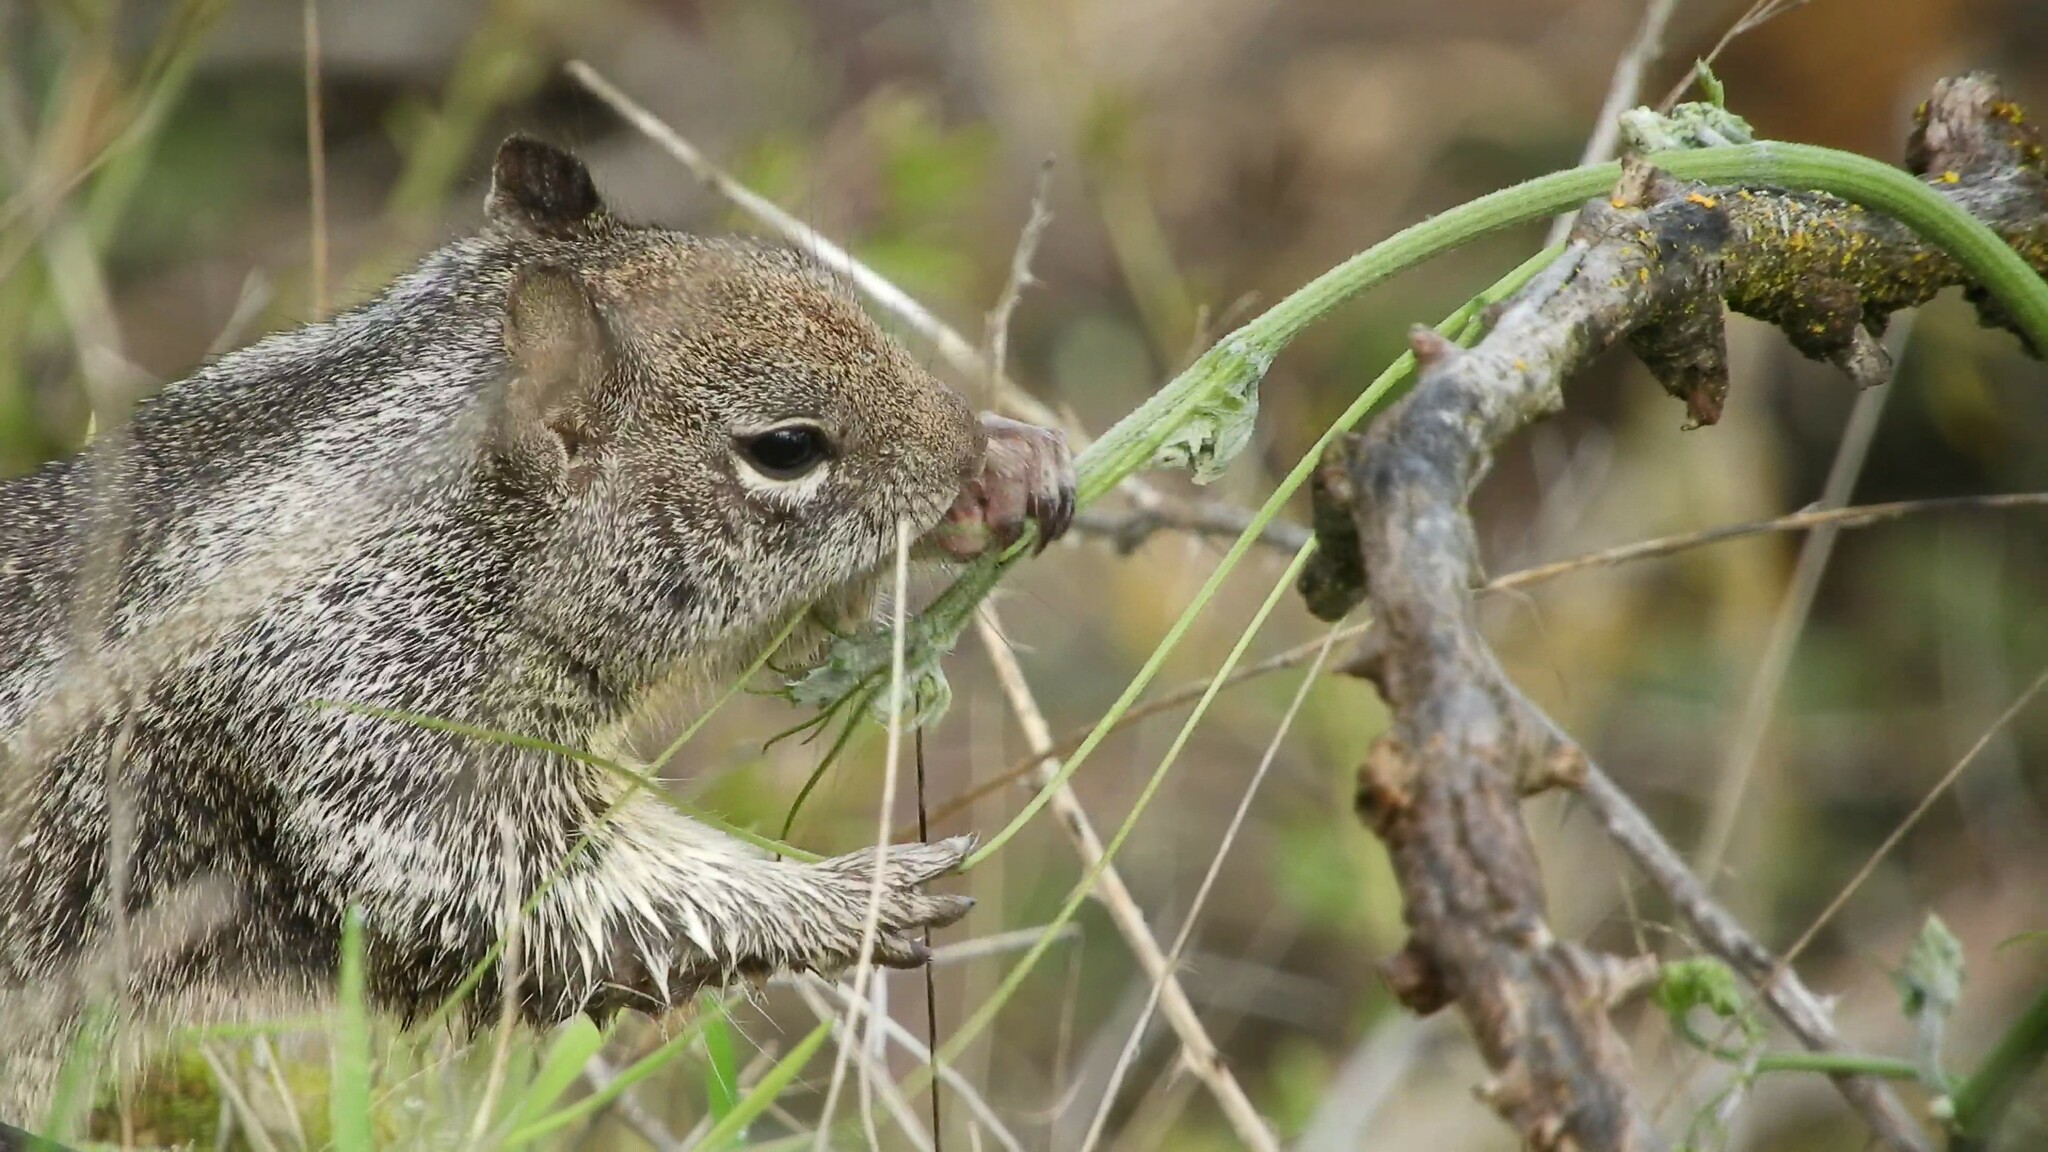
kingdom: Animalia
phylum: Chordata
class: Mammalia
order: Rodentia
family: Sciuridae
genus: Otospermophilus
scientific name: Otospermophilus beecheyi
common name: California ground squirrel
